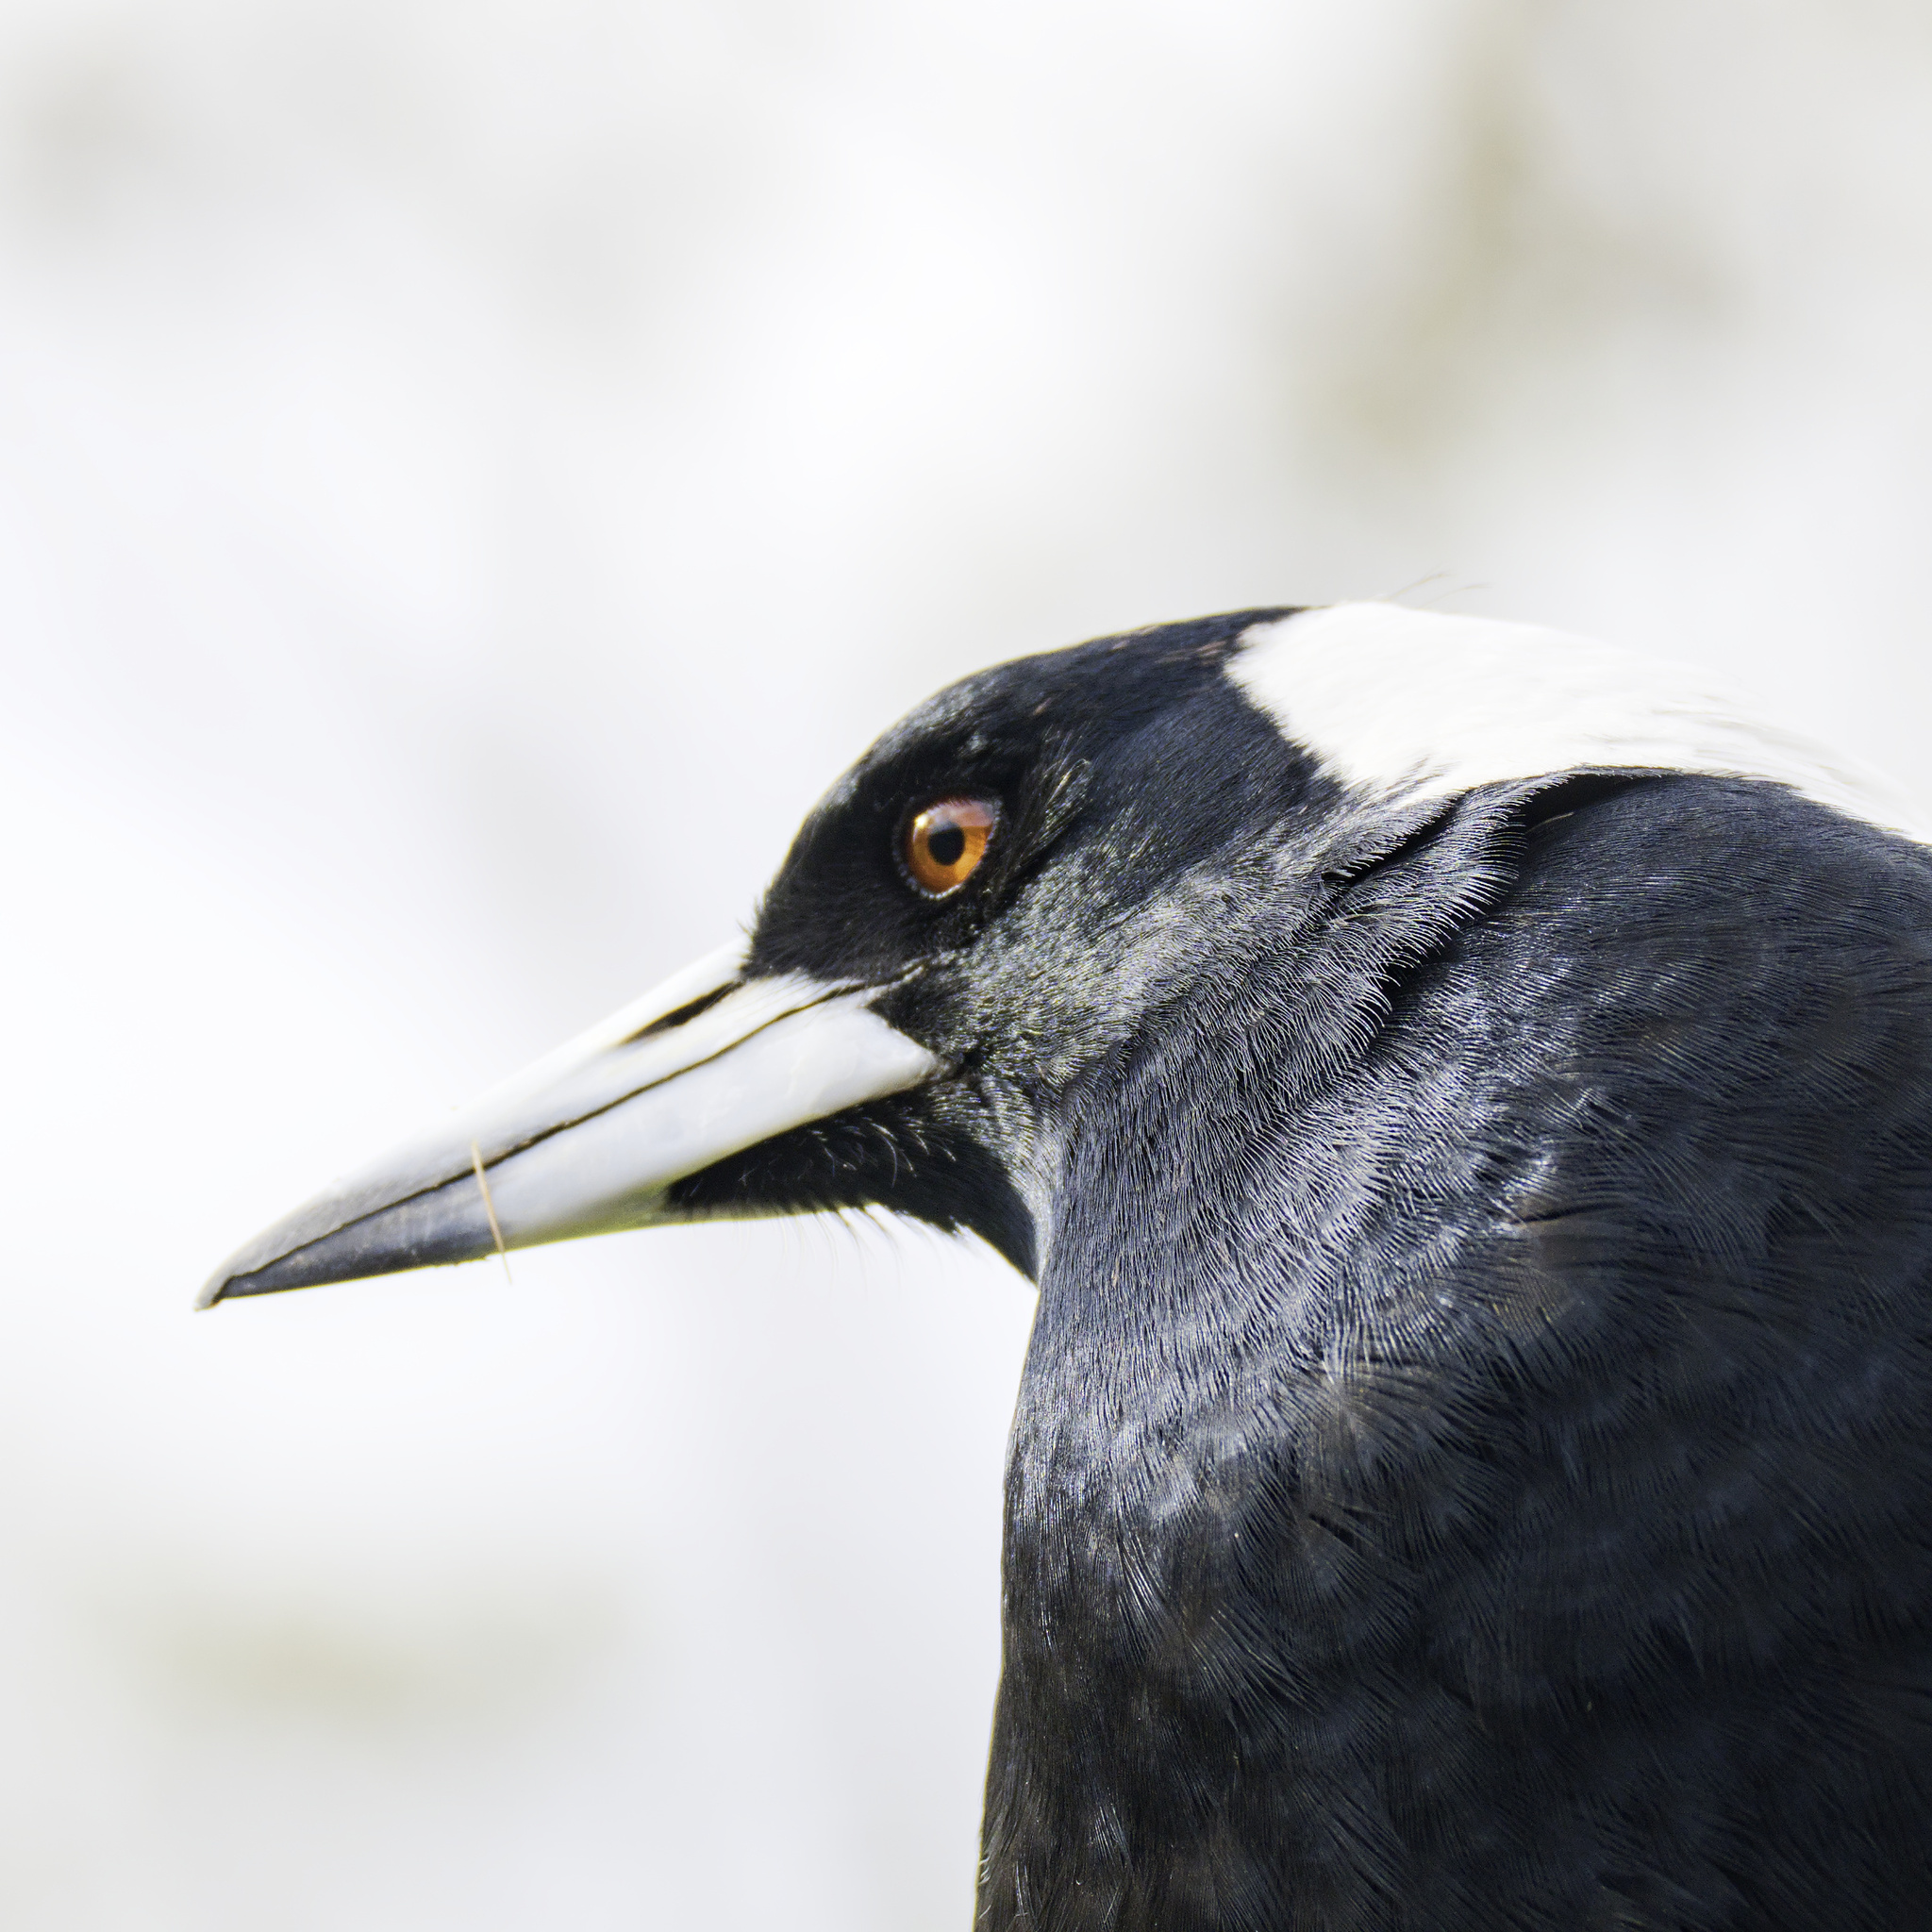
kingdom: Animalia
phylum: Chordata
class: Aves
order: Passeriformes
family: Cracticidae
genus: Gymnorhina
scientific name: Gymnorhina tibicen
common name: Australian magpie
